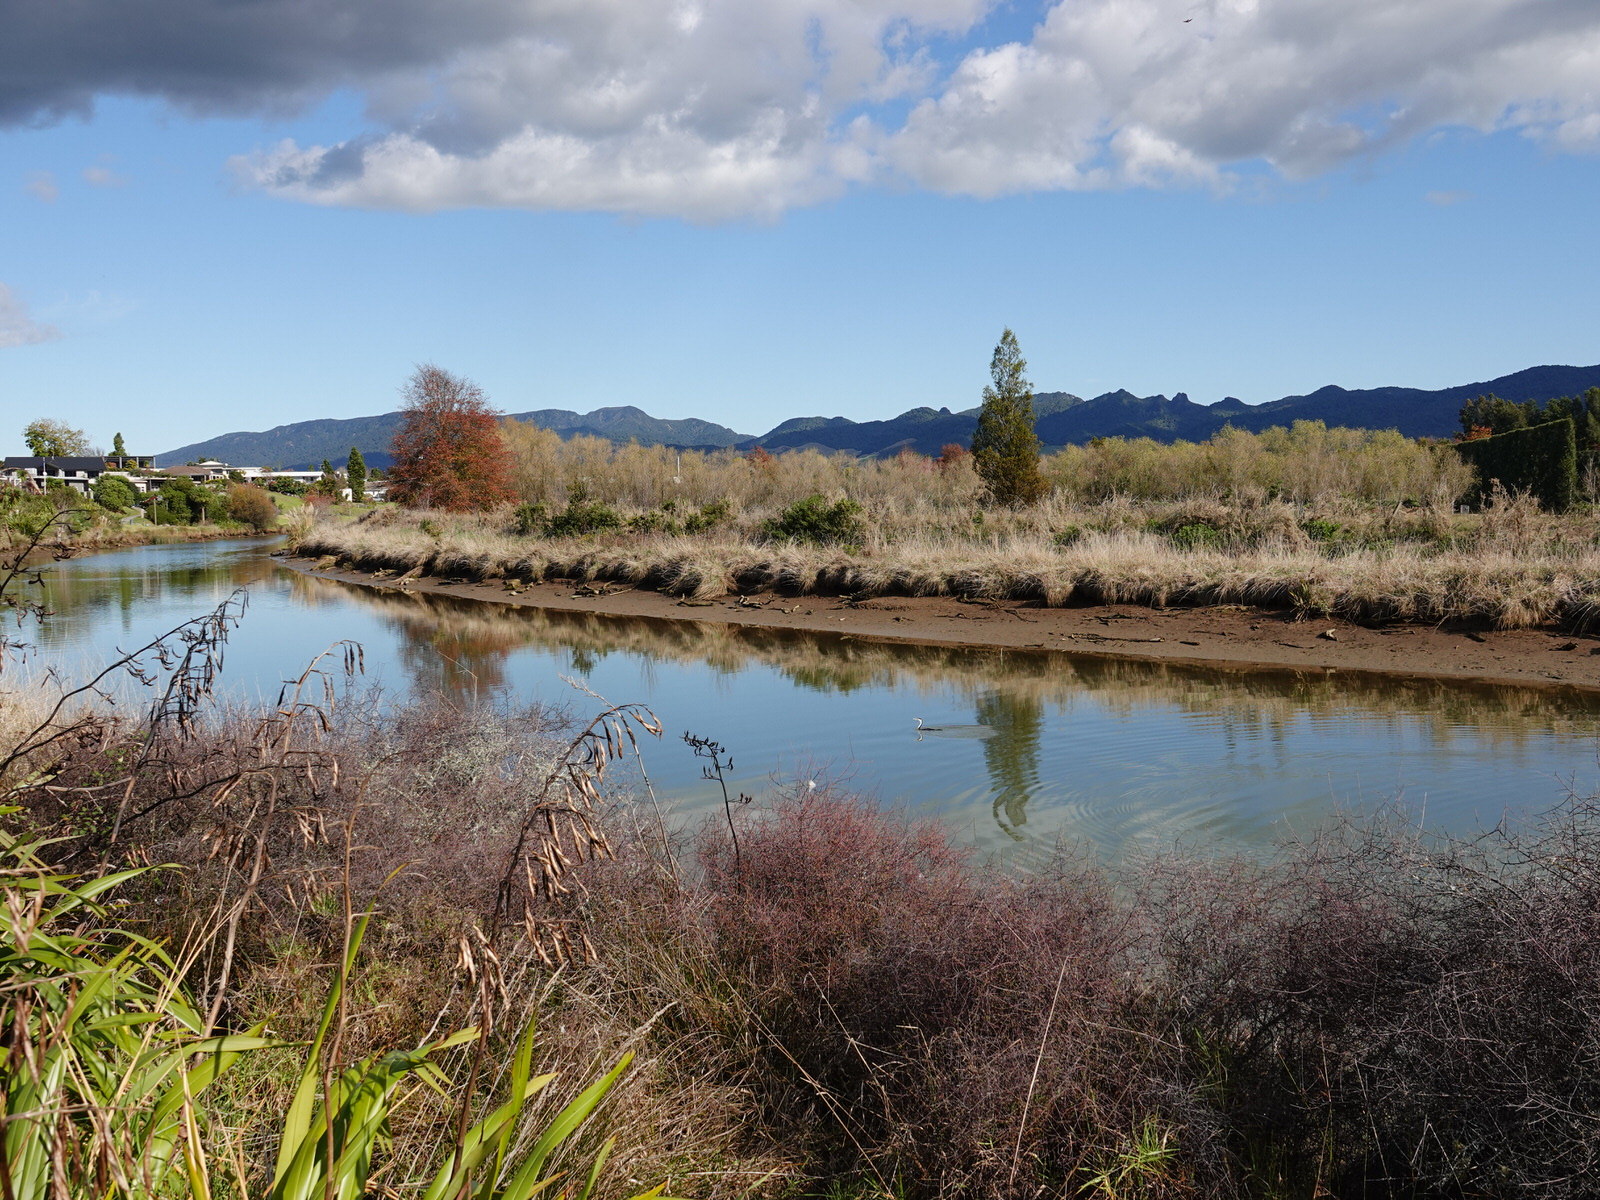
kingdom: Animalia
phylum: Chordata
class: Aves
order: Suliformes
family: Phalacrocoracidae
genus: Phalacrocorax
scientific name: Phalacrocorax varius
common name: Pied cormorant
